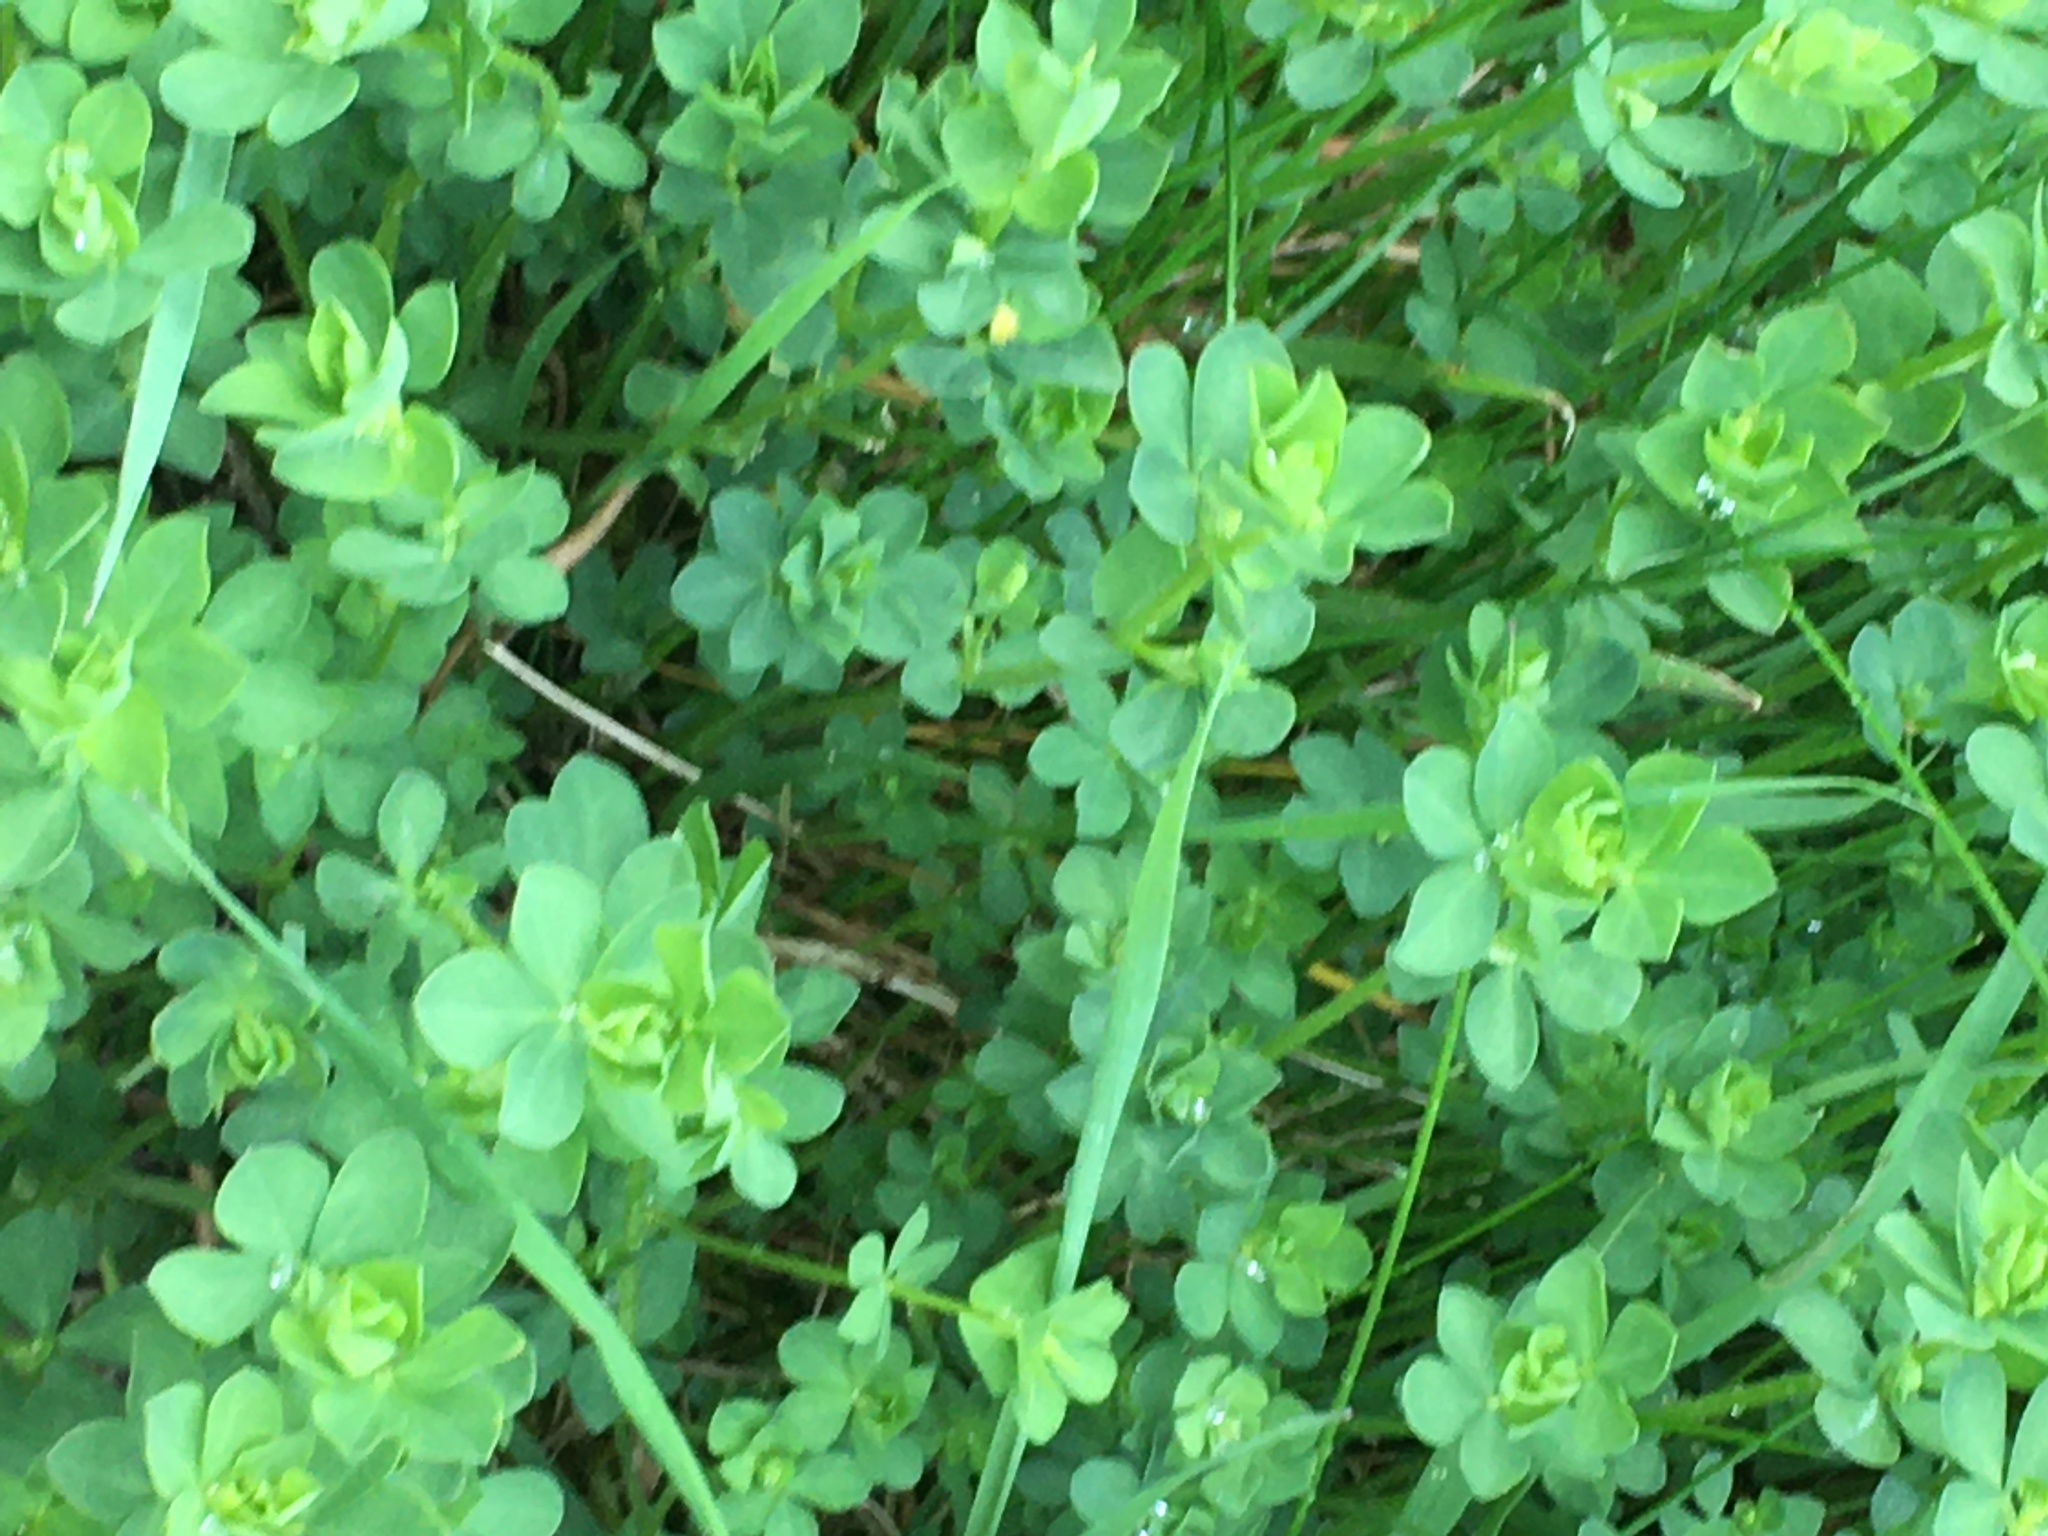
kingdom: Plantae
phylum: Tracheophyta
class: Magnoliopsida
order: Fabales
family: Fabaceae
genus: Lotus
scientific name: Lotus corniculatus
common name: Common bird's-foot-trefoil
